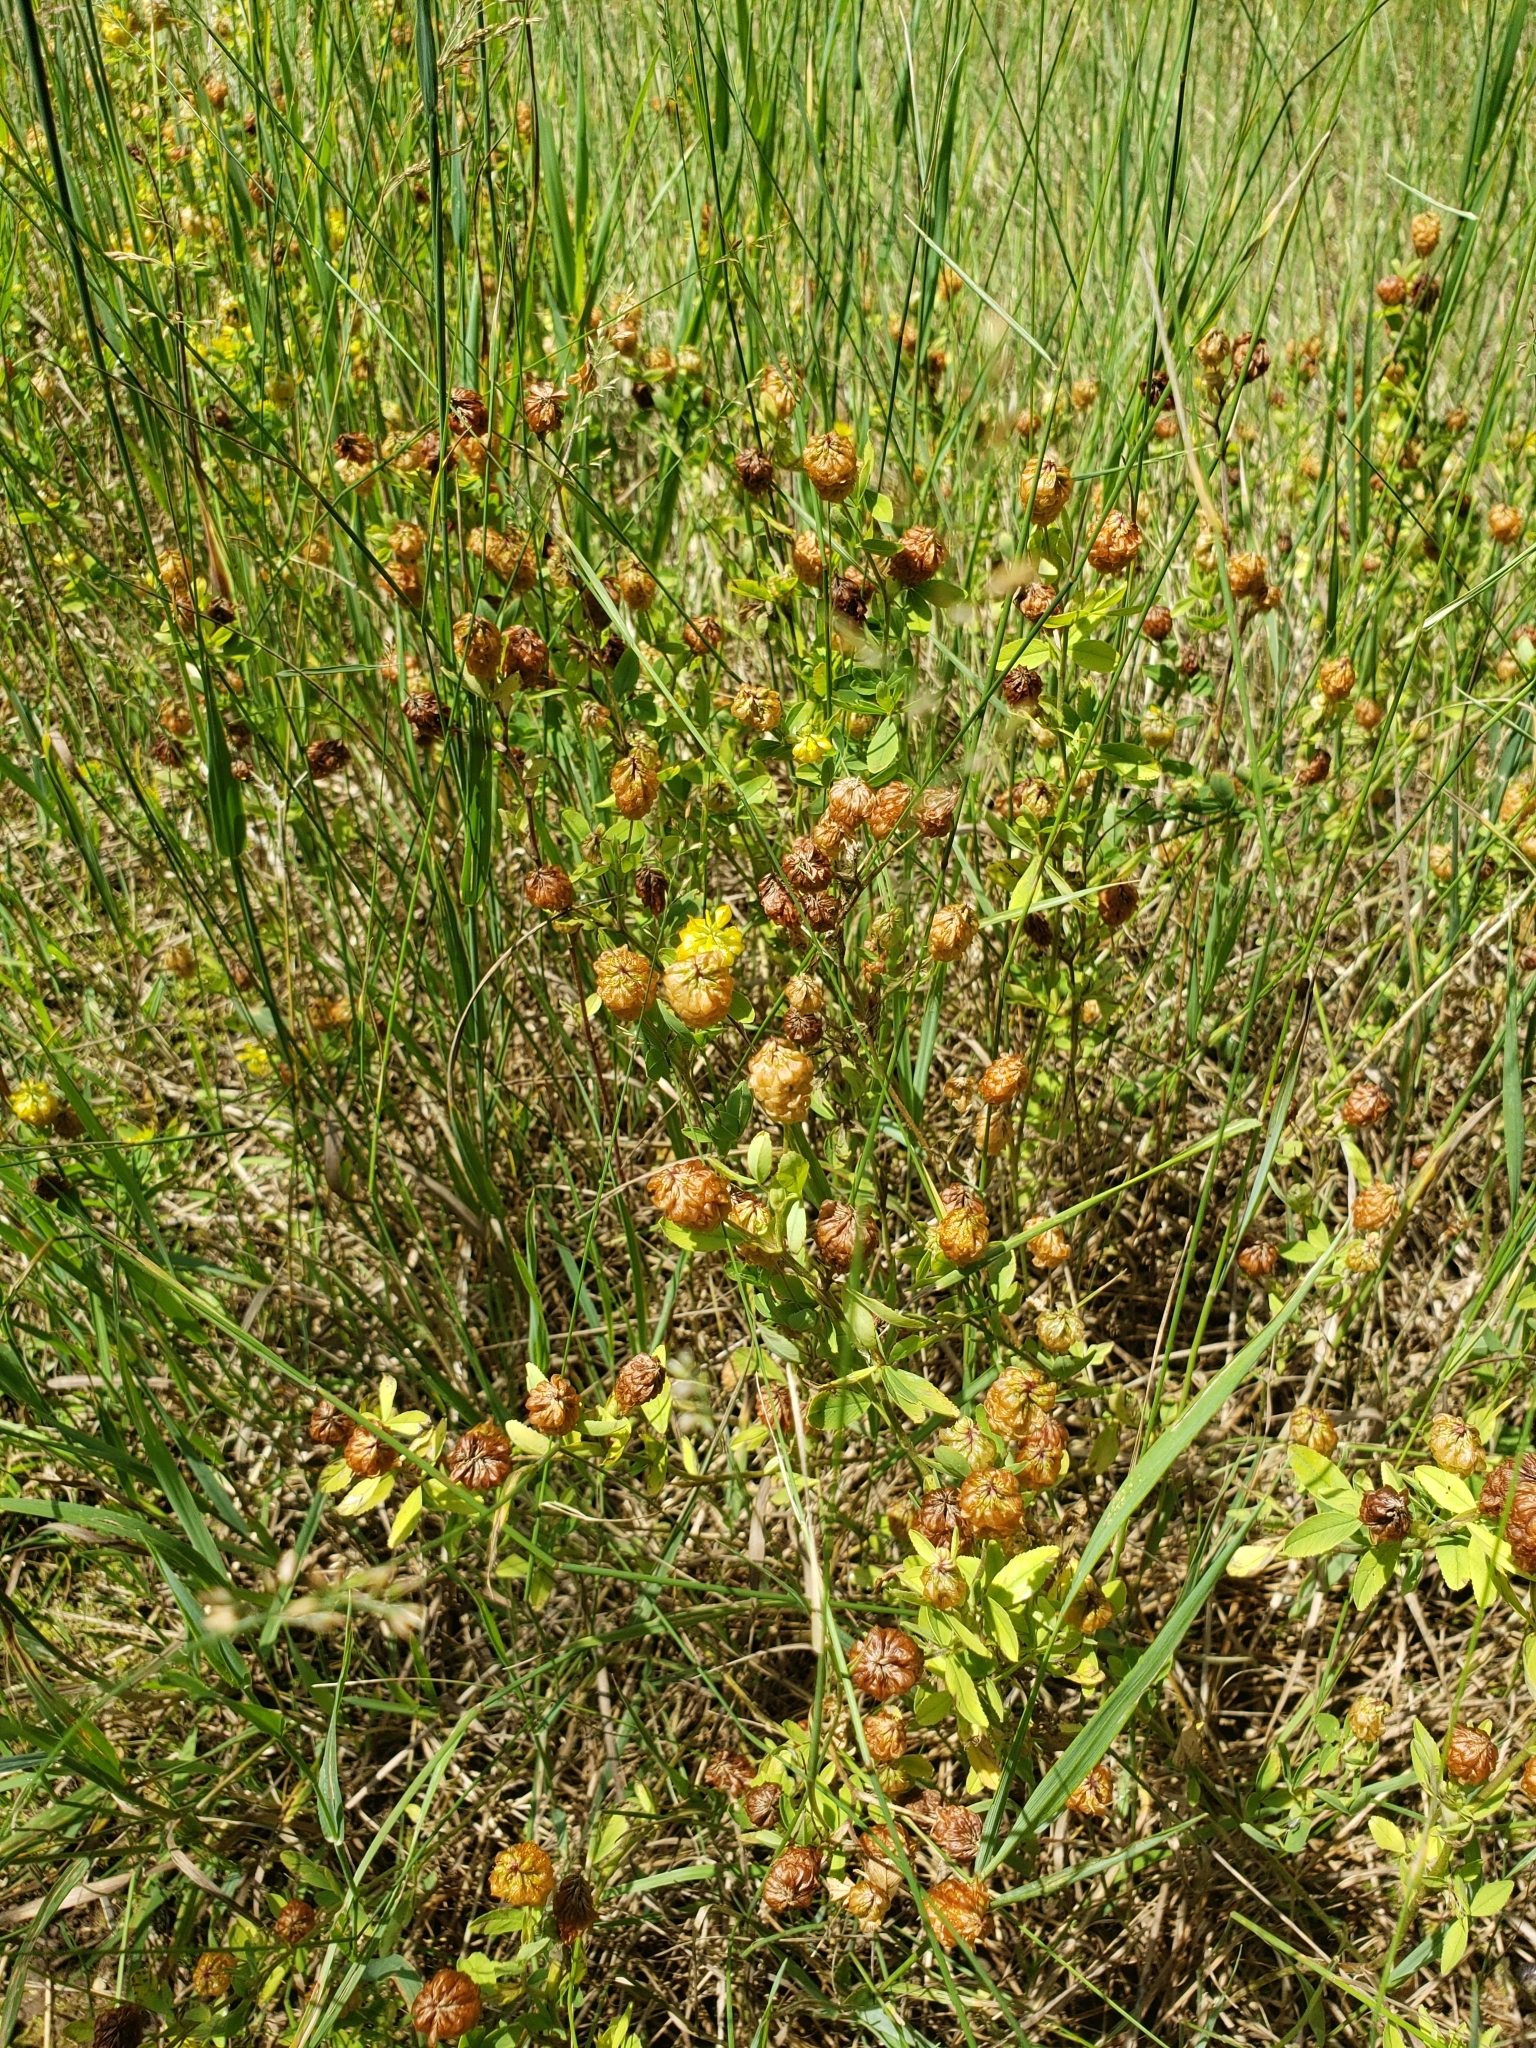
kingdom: Plantae
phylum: Tracheophyta
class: Magnoliopsida
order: Fabales
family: Fabaceae
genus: Trifolium
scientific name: Trifolium aureum
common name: Golden clover
